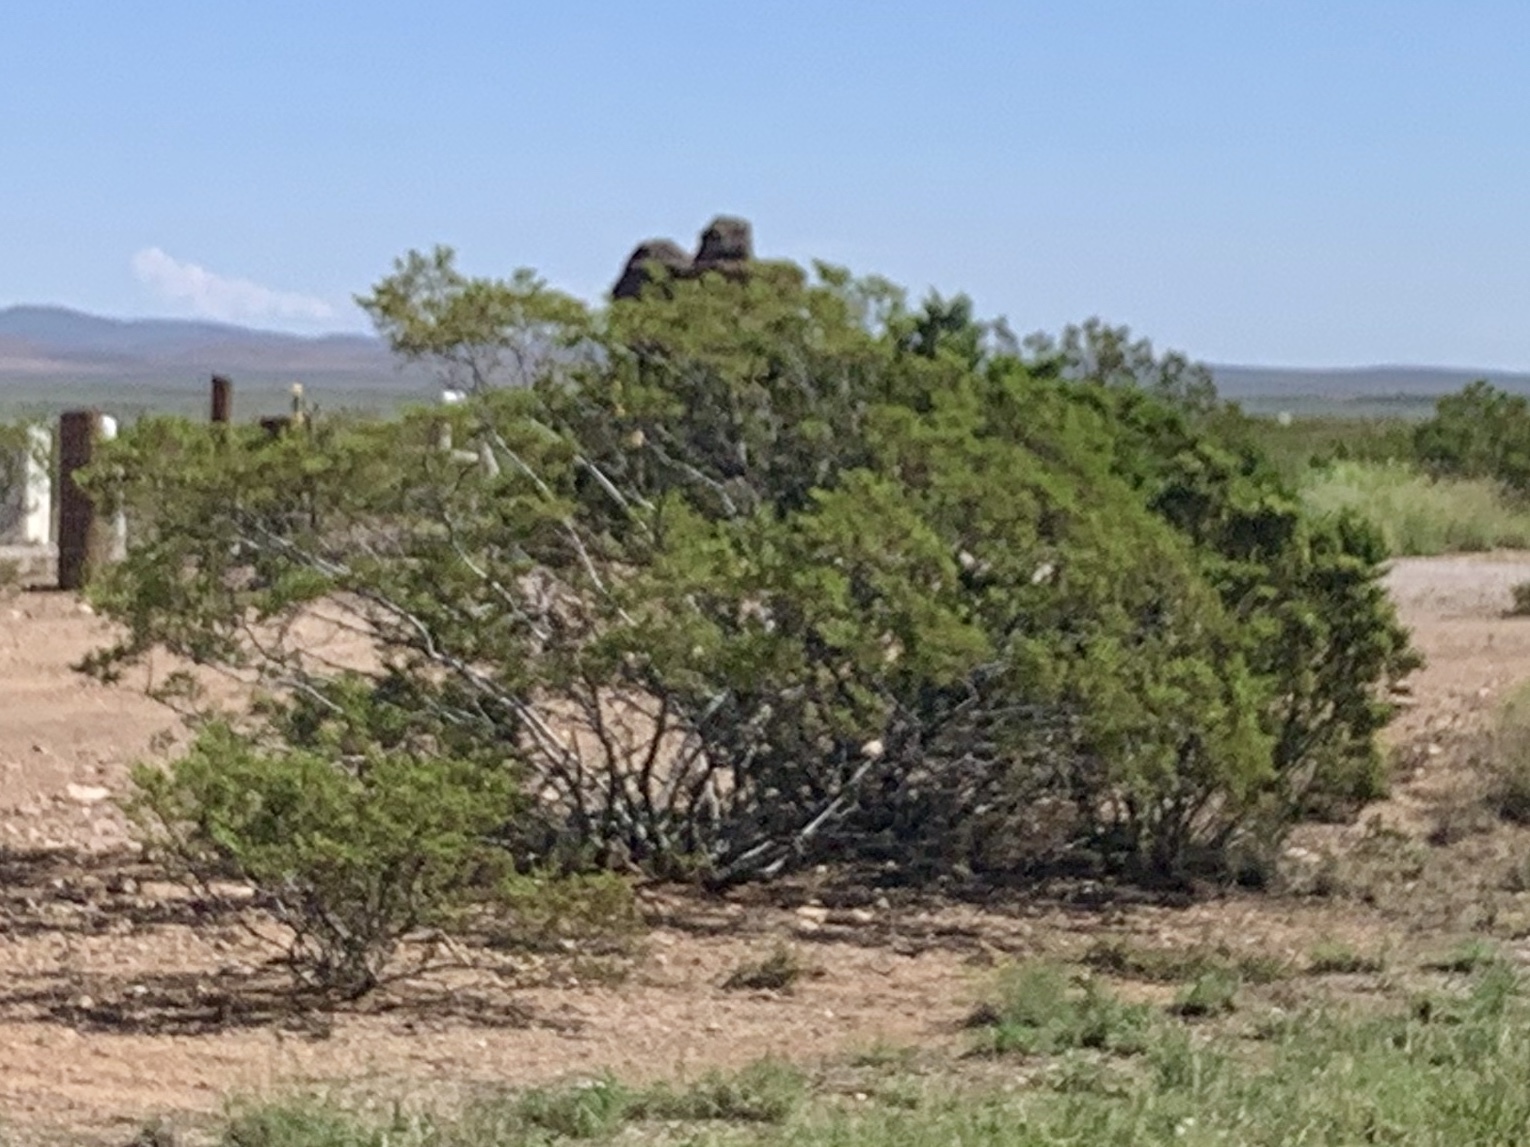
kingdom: Plantae
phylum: Tracheophyta
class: Magnoliopsida
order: Zygophyllales
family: Zygophyllaceae
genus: Larrea
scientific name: Larrea tridentata
